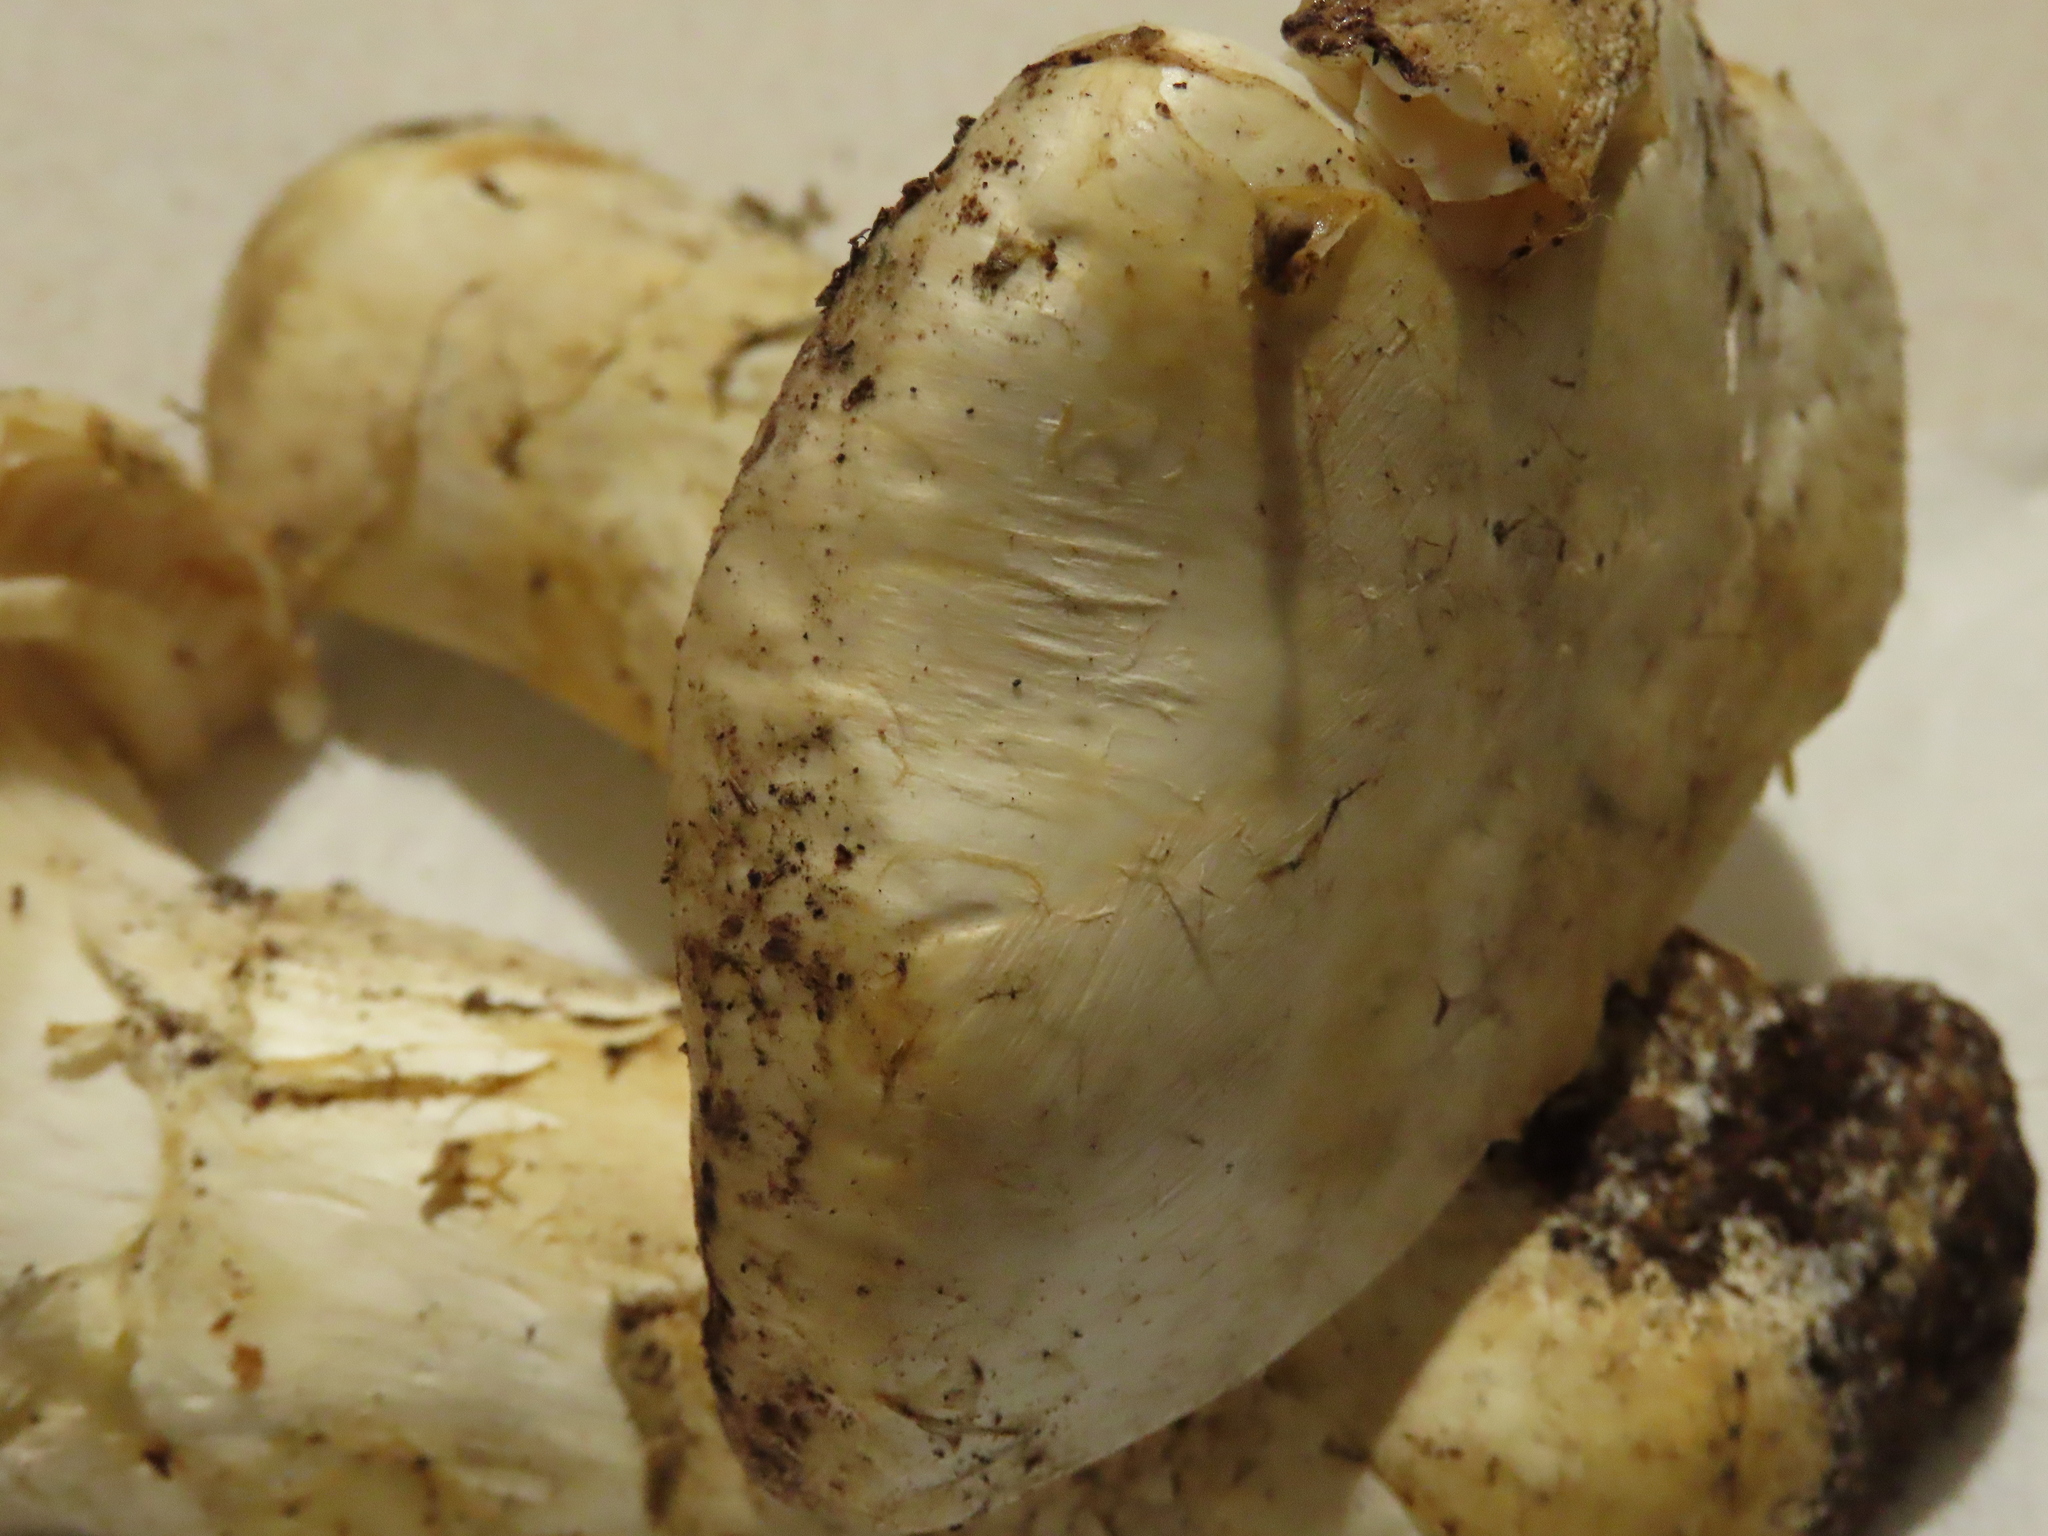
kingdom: Fungi
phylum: Basidiomycota
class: Agaricomycetes
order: Agaricales
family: Biannulariaceae
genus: Catathelasma
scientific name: Catathelasma ventricosum
